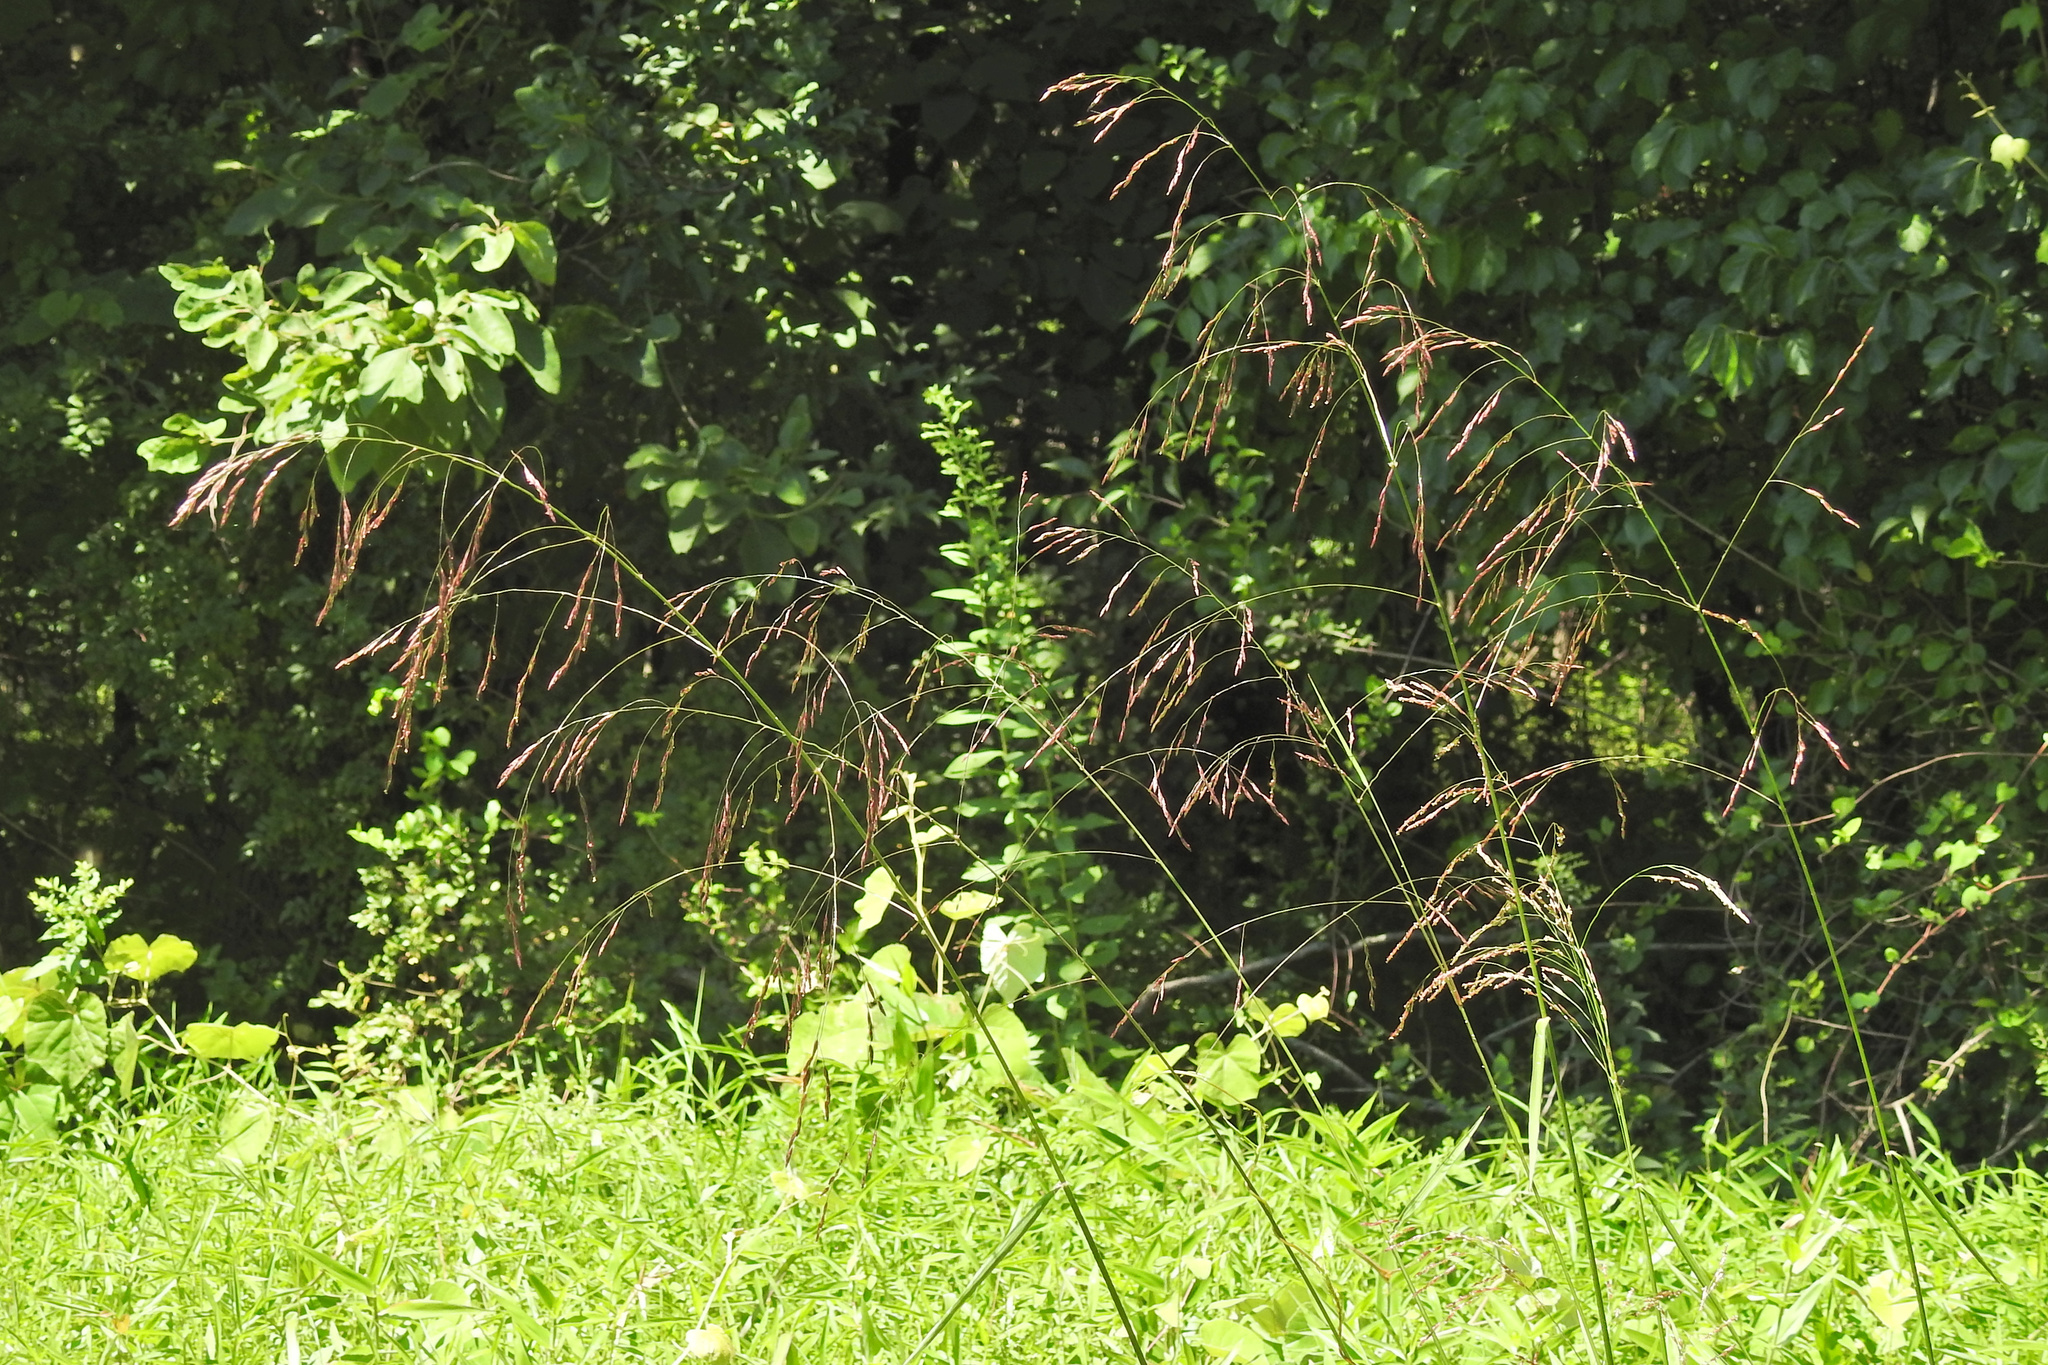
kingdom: Plantae
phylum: Tracheophyta
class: Liliopsida
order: Poales
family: Poaceae
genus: Tridens
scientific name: Tridens flavus
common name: Purpletop
